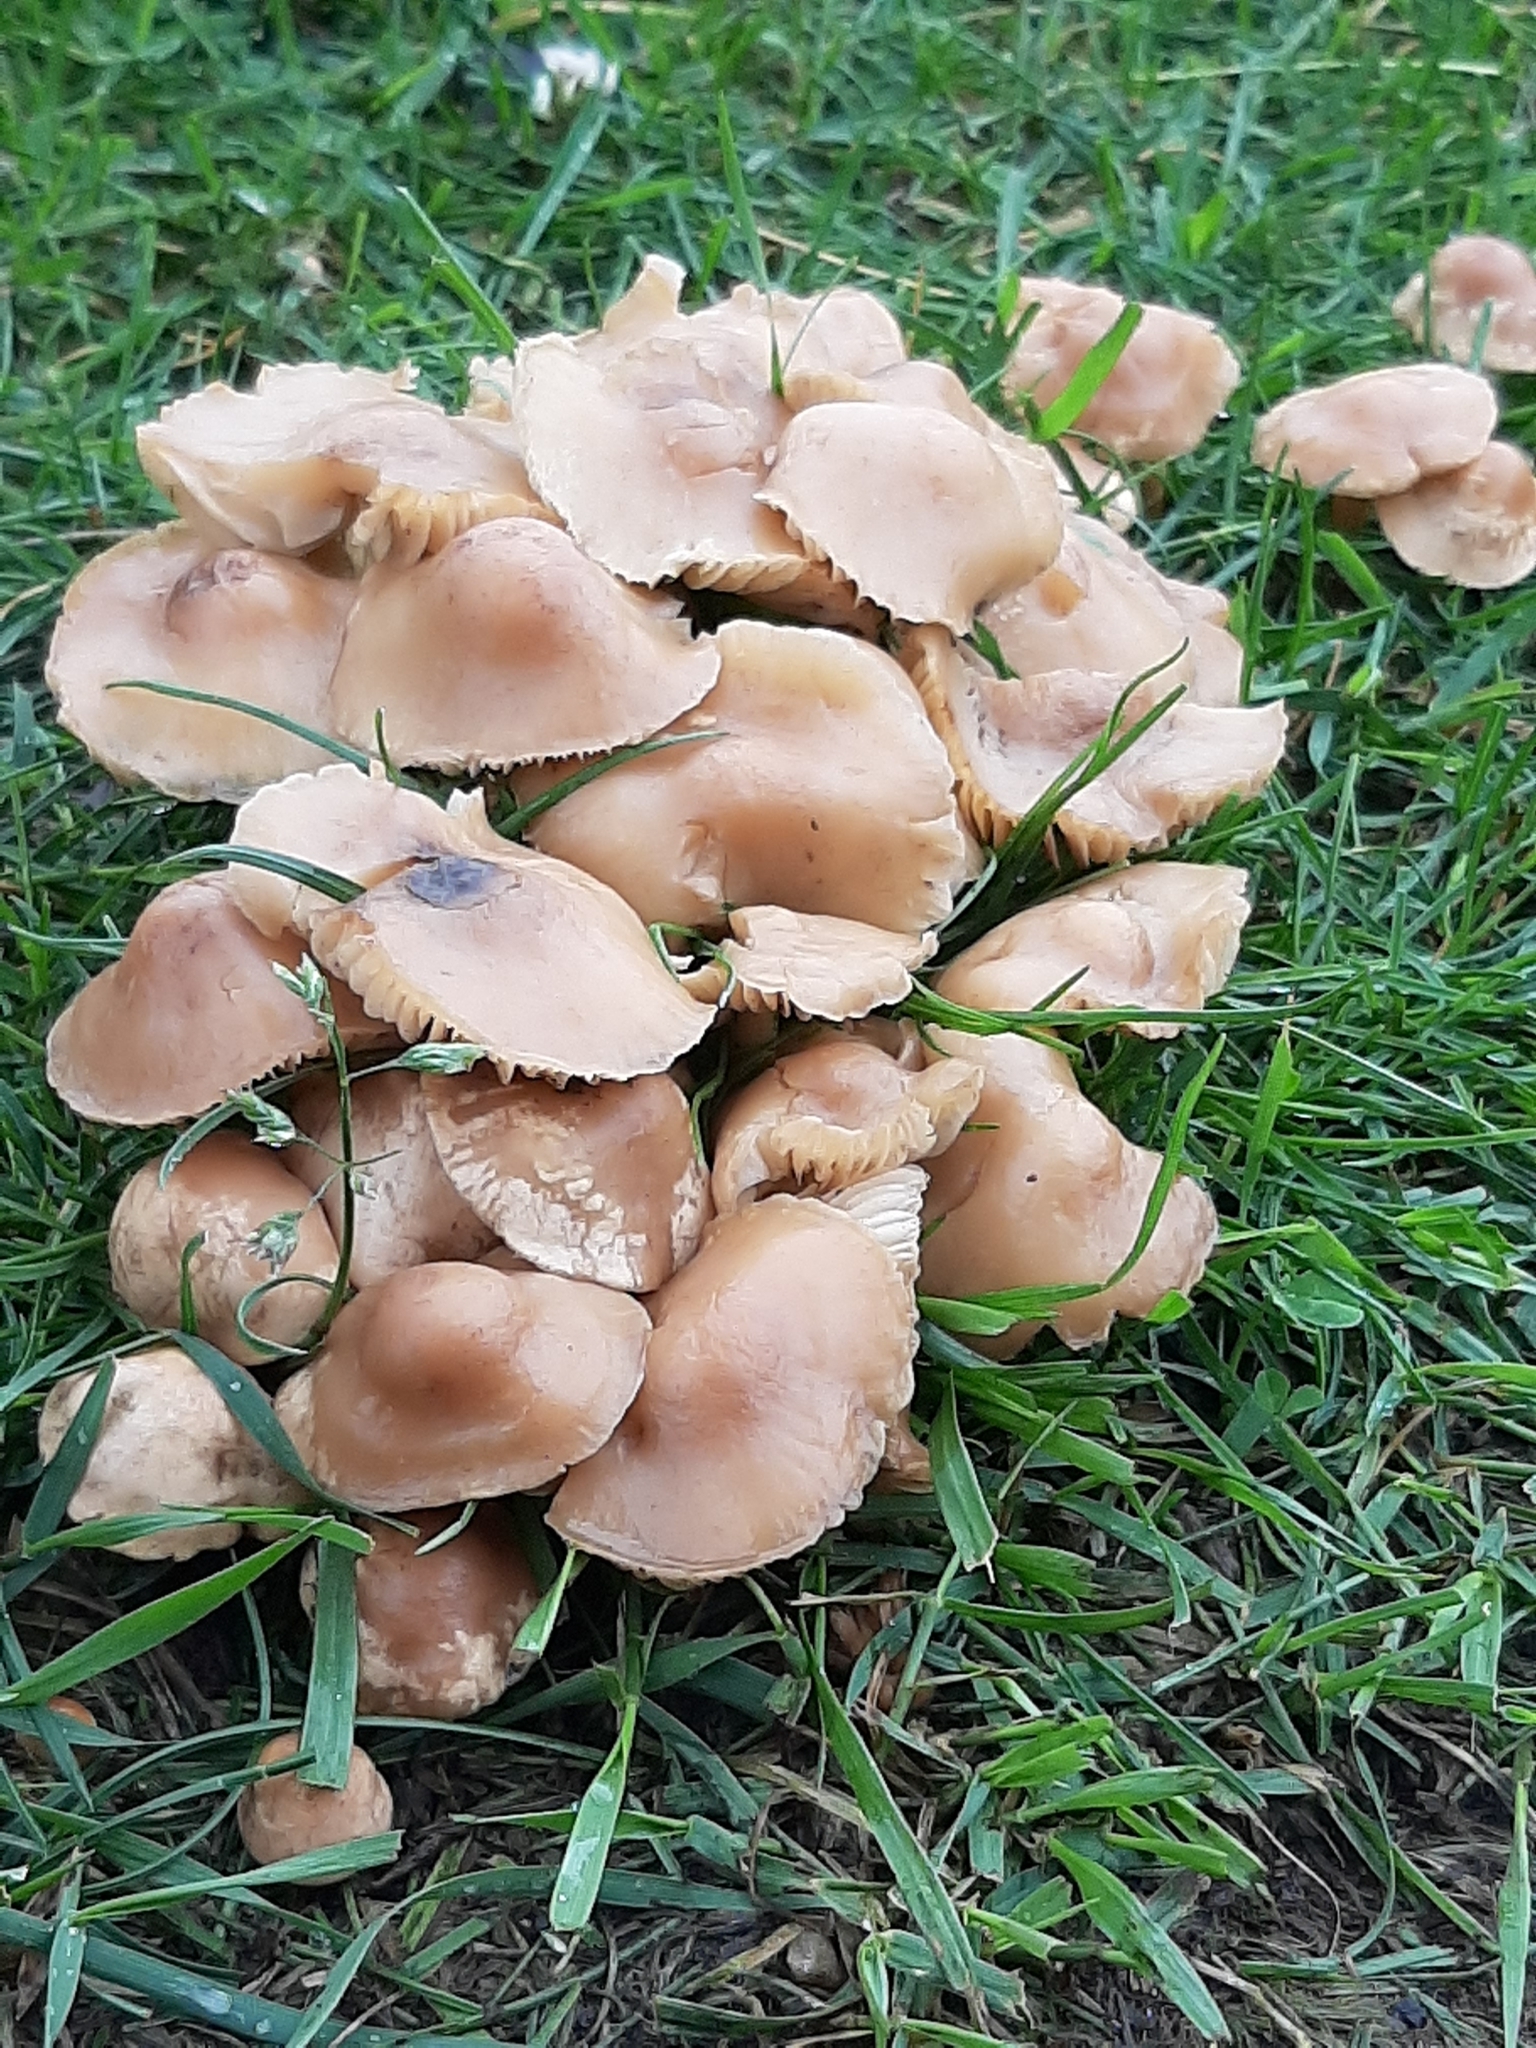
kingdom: Fungi
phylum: Basidiomycota
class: Agaricomycetes
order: Agaricales
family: Marasmiaceae
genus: Marasmius
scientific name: Marasmius oreades
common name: Fairy ring champignon
